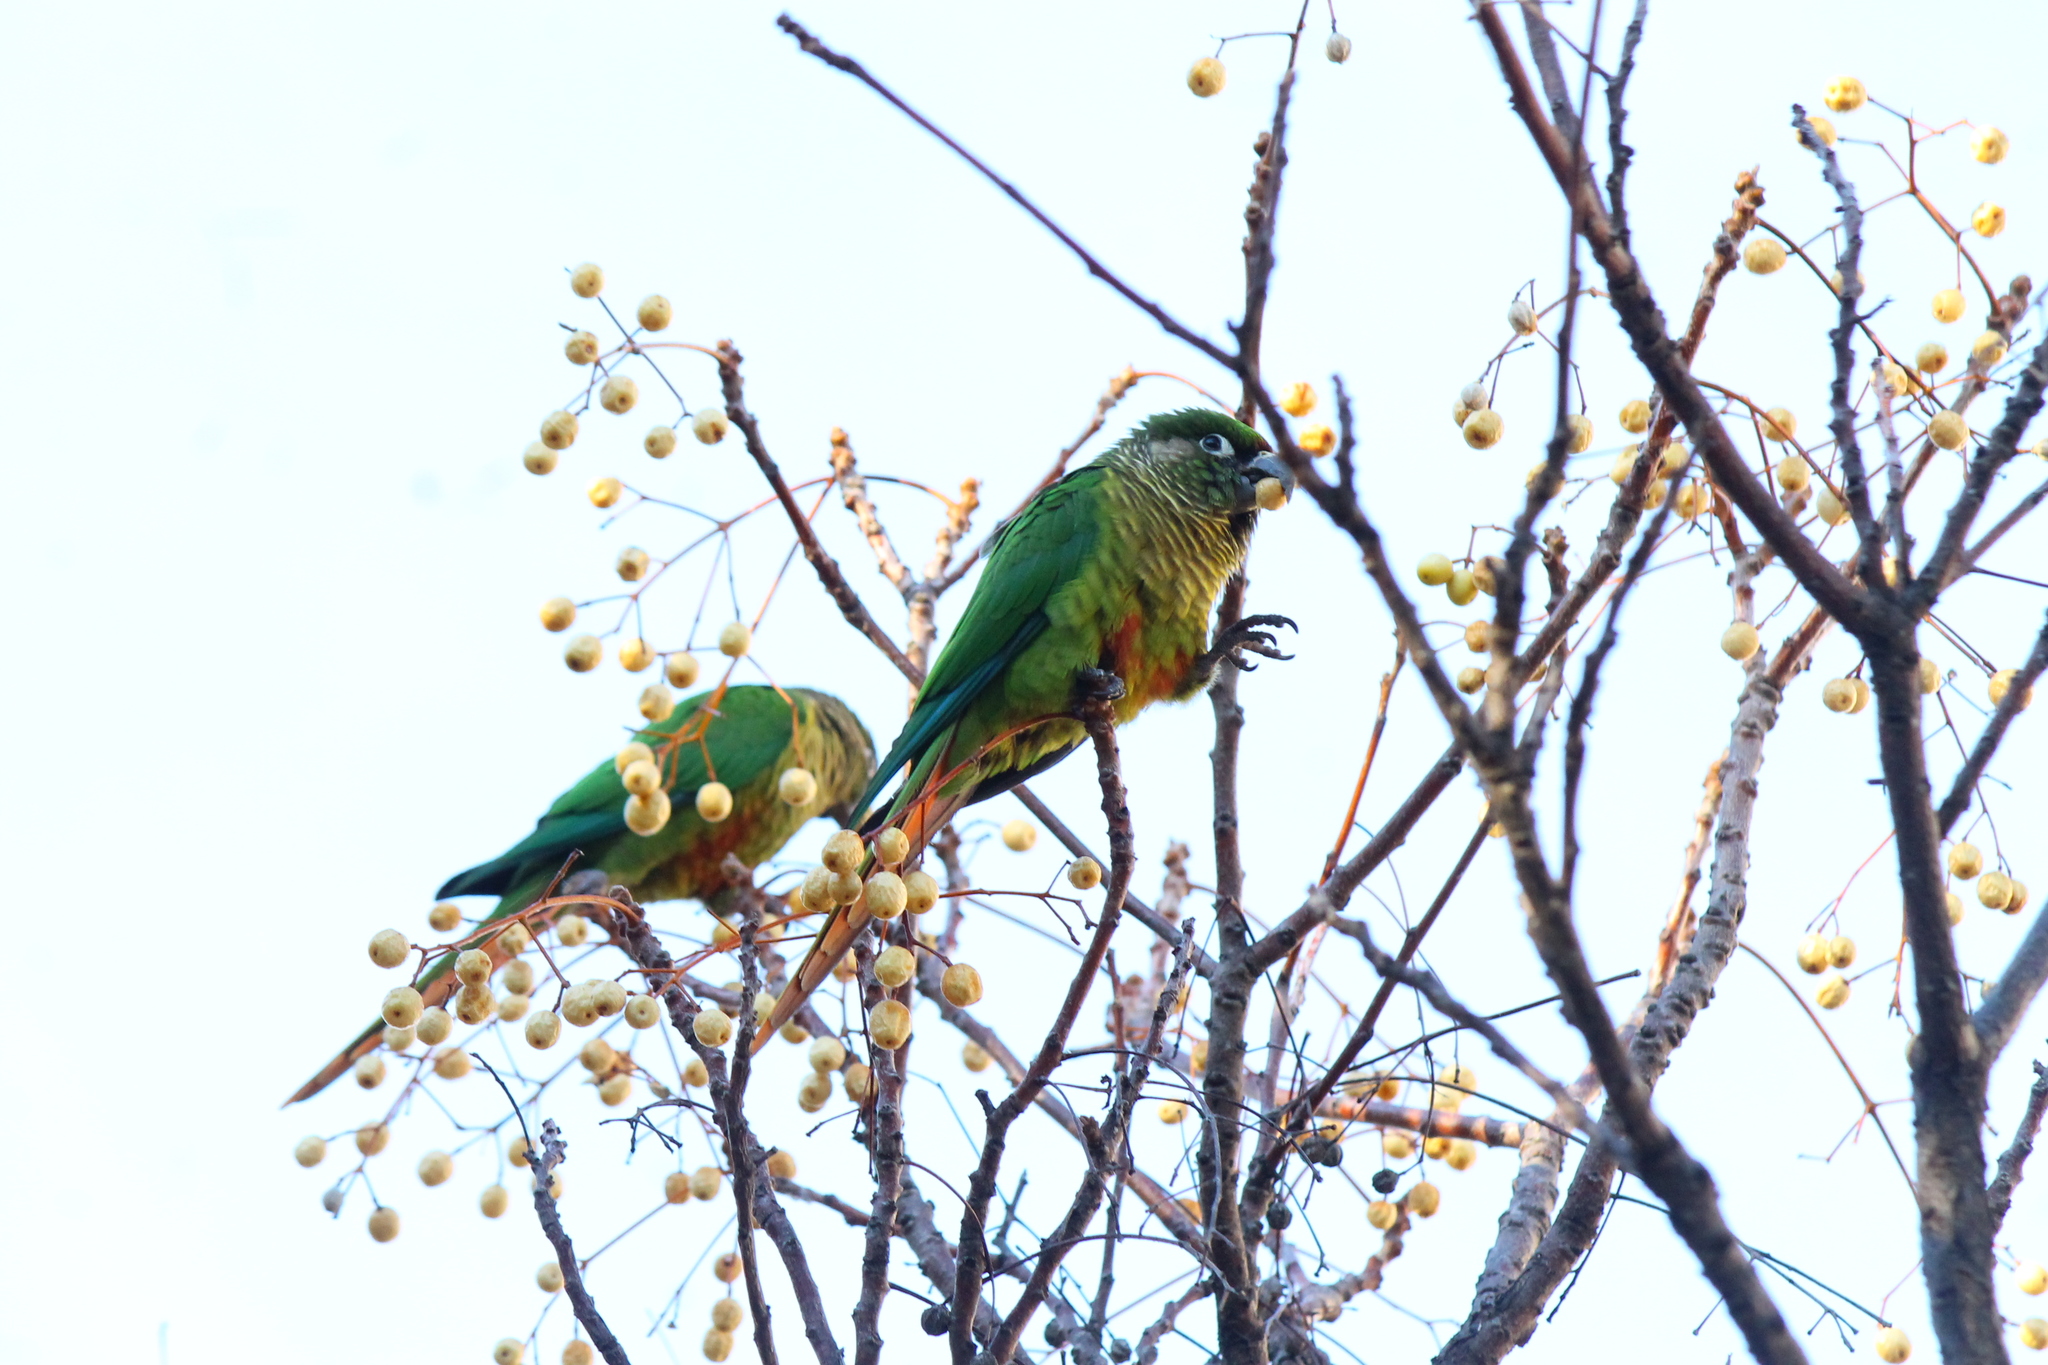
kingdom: Animalia
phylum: Chordata
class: Aves
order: Psittaciformes
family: Psittacidae
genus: Pyrrhura
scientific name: Pyrrhura frontalis
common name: Maroon-bellied parakeet
